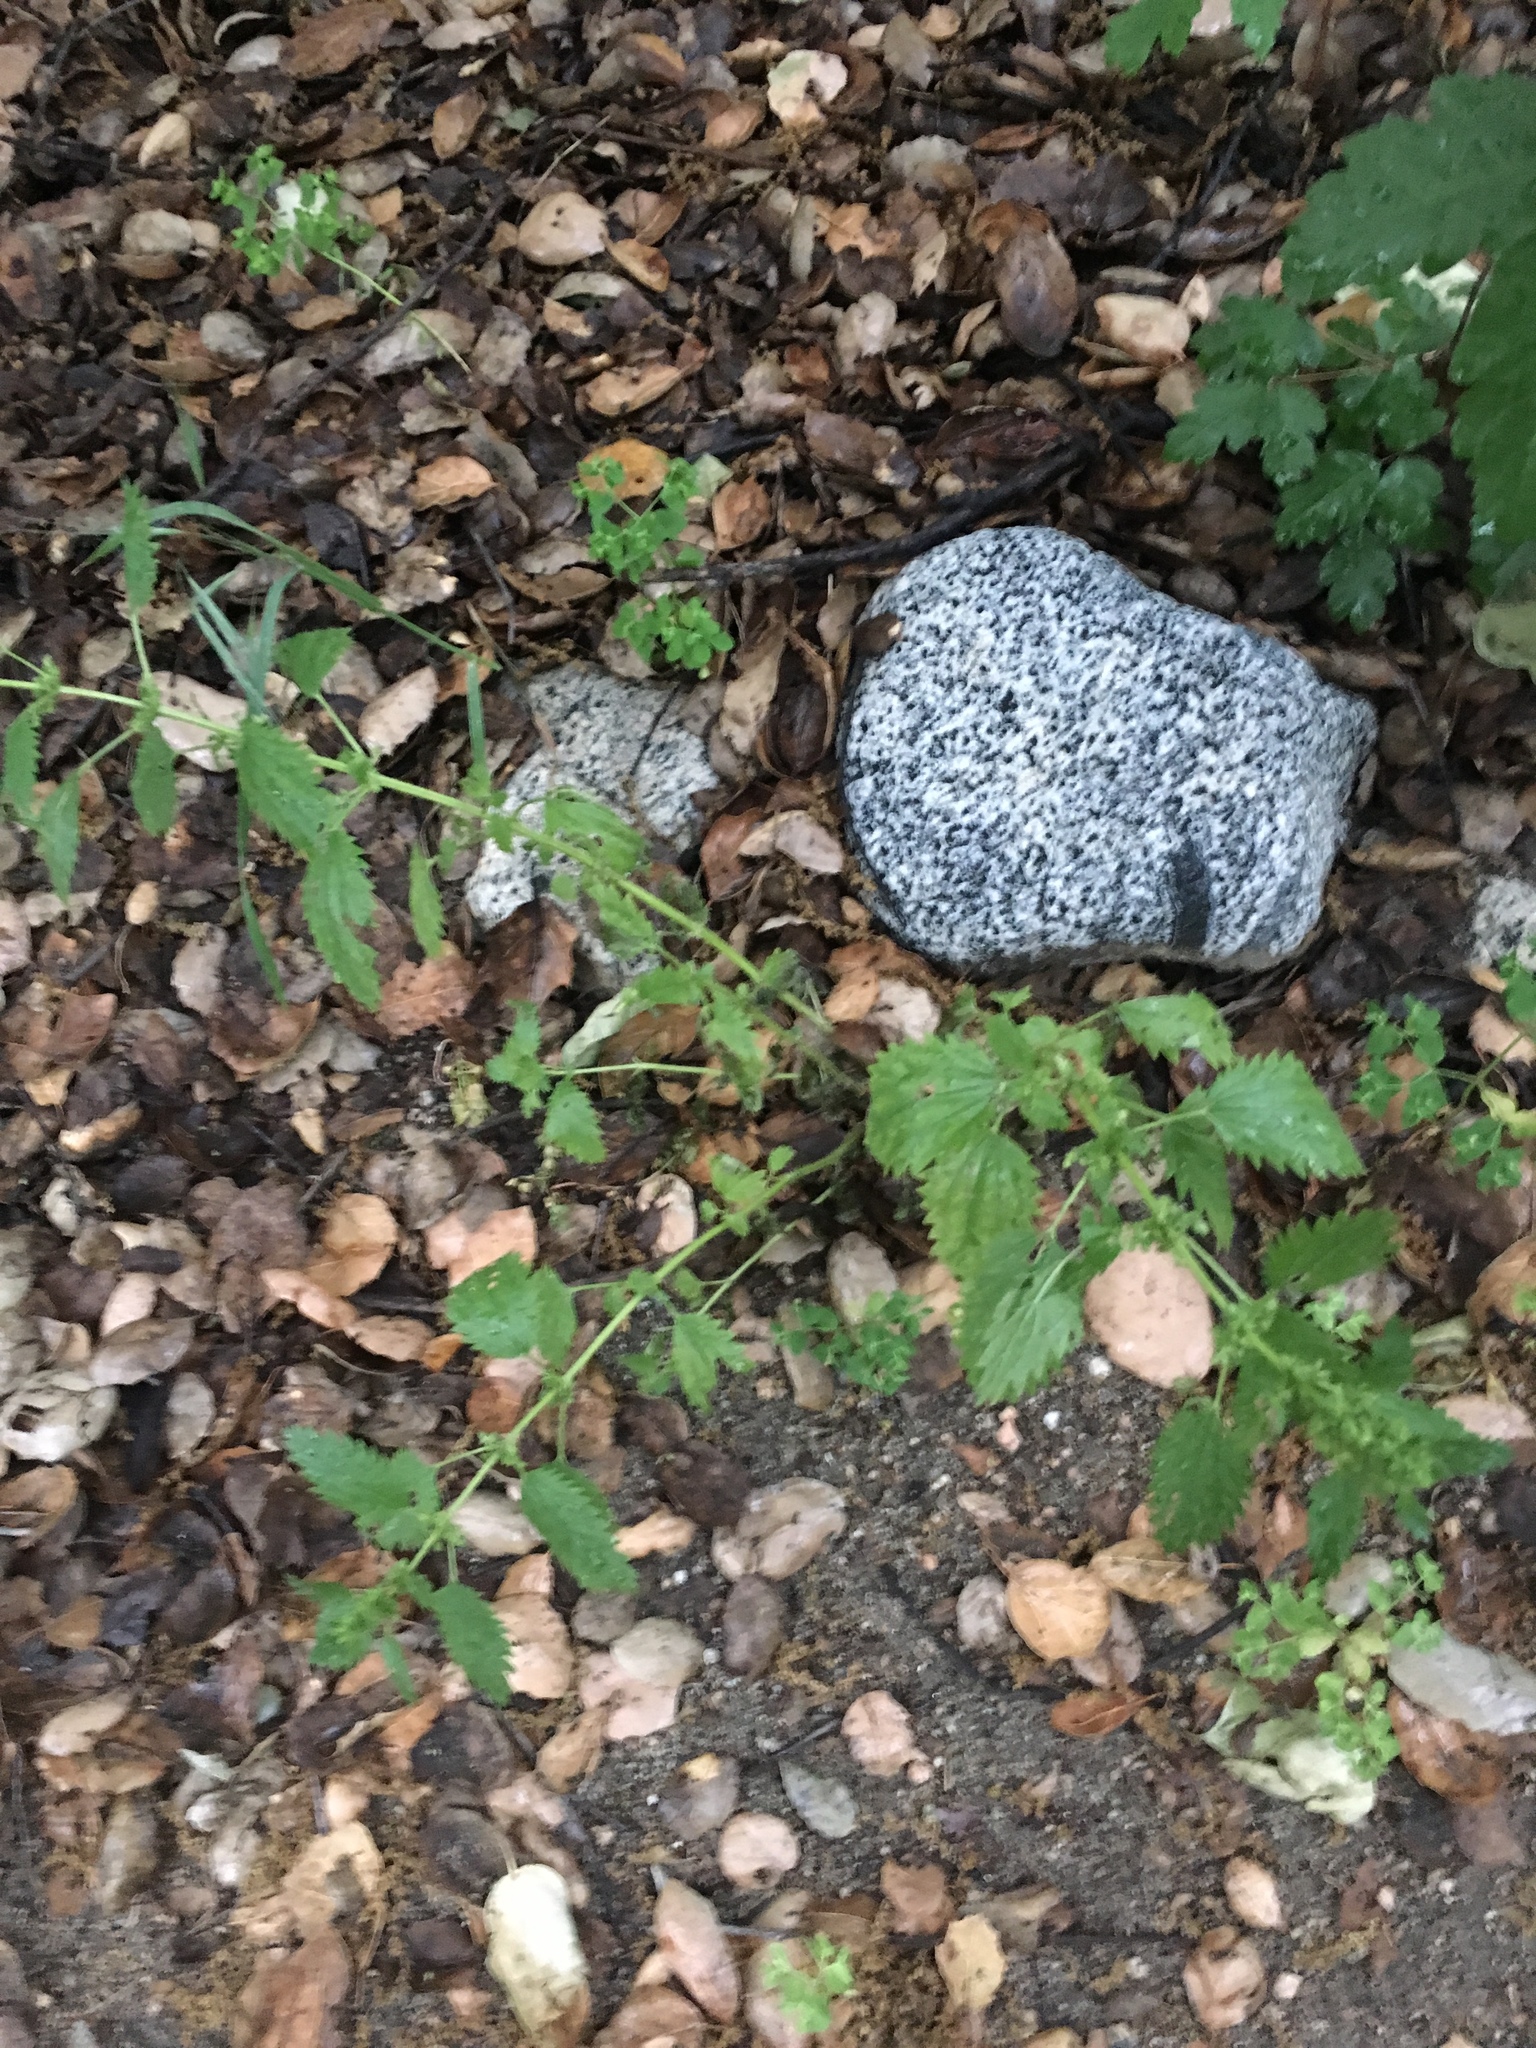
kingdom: Plantae
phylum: Tracheophyta
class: Magnoliopsida
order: Rosales
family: Urticaceae
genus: Urtica
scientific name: Urtica urens
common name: Dwarf nettle
